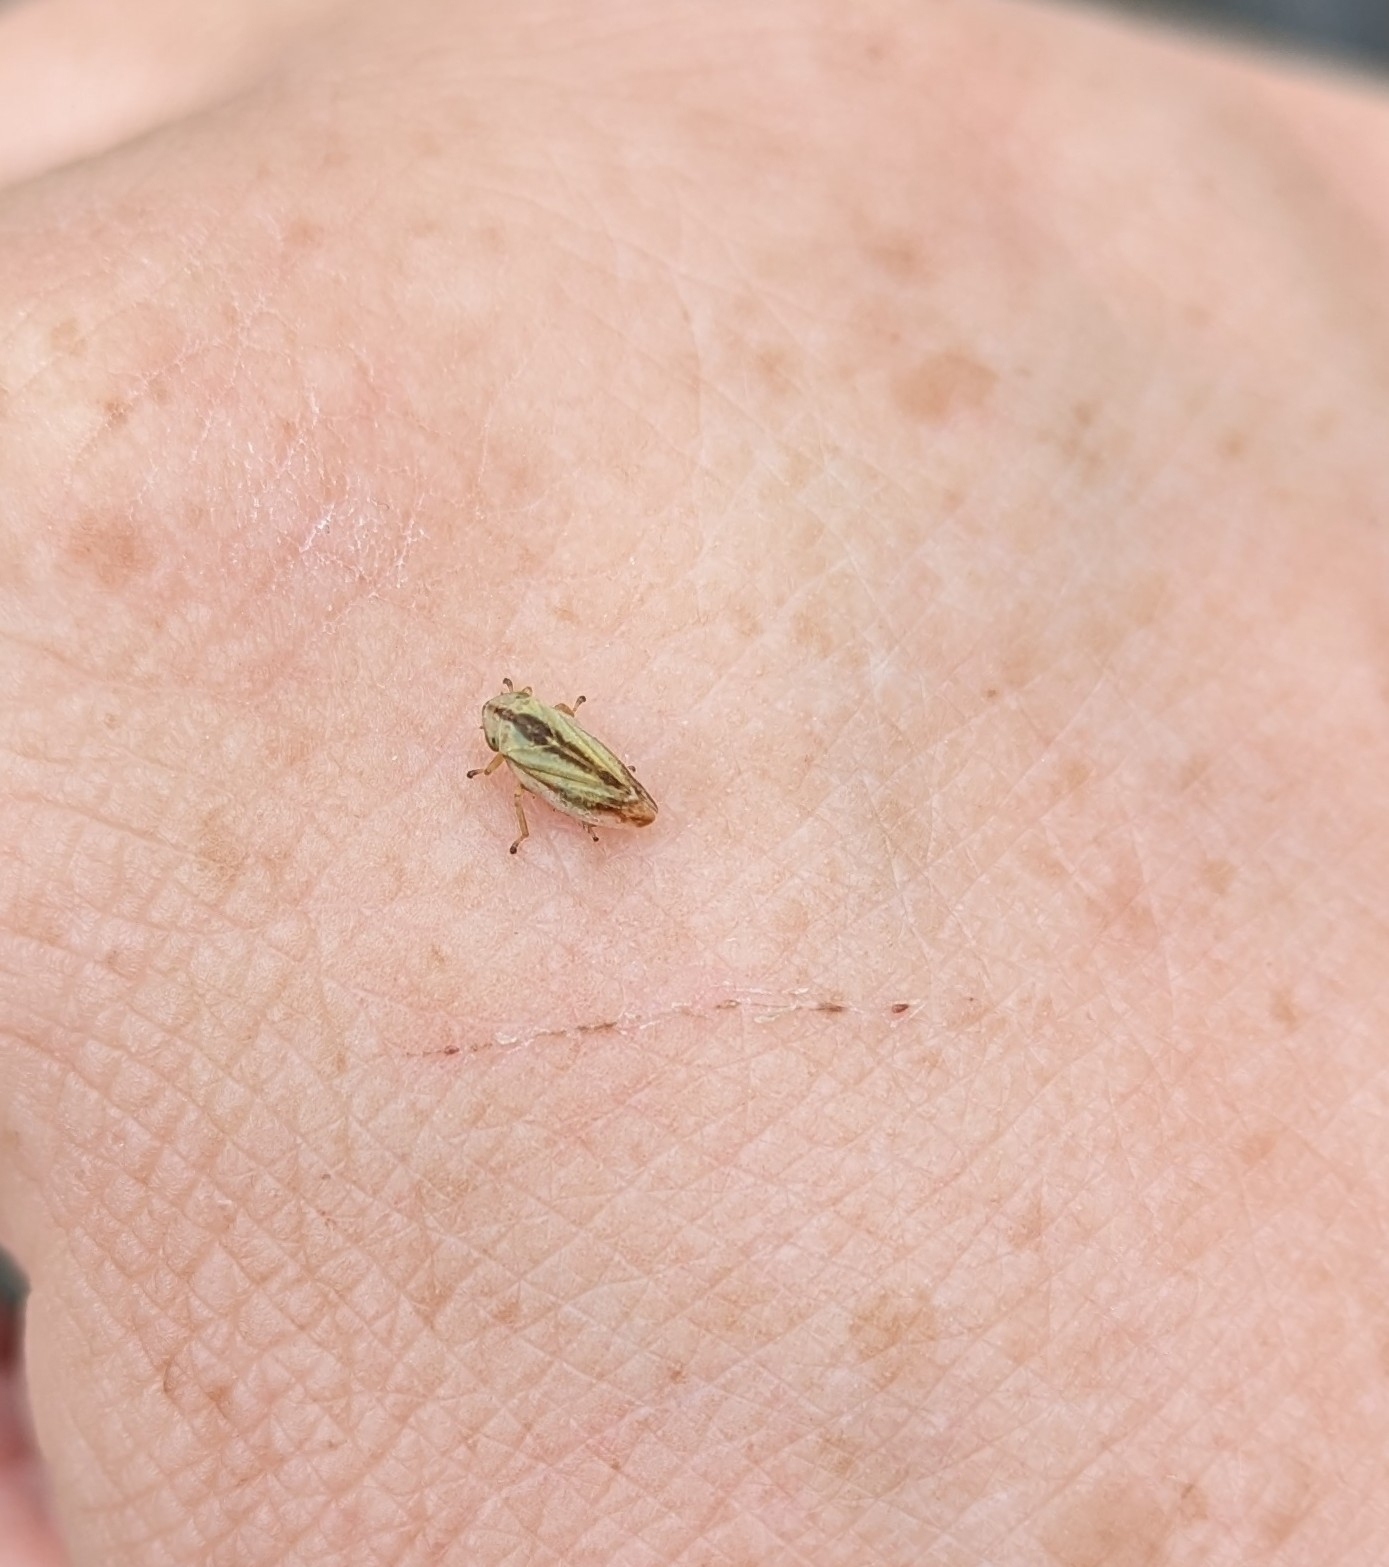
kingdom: Animalia
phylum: Arthropoda
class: Insecta
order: Hemiptera
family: Aphrophoridae
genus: Philaenus
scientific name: Philaenus spumarius
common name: Meadow spittlebug
